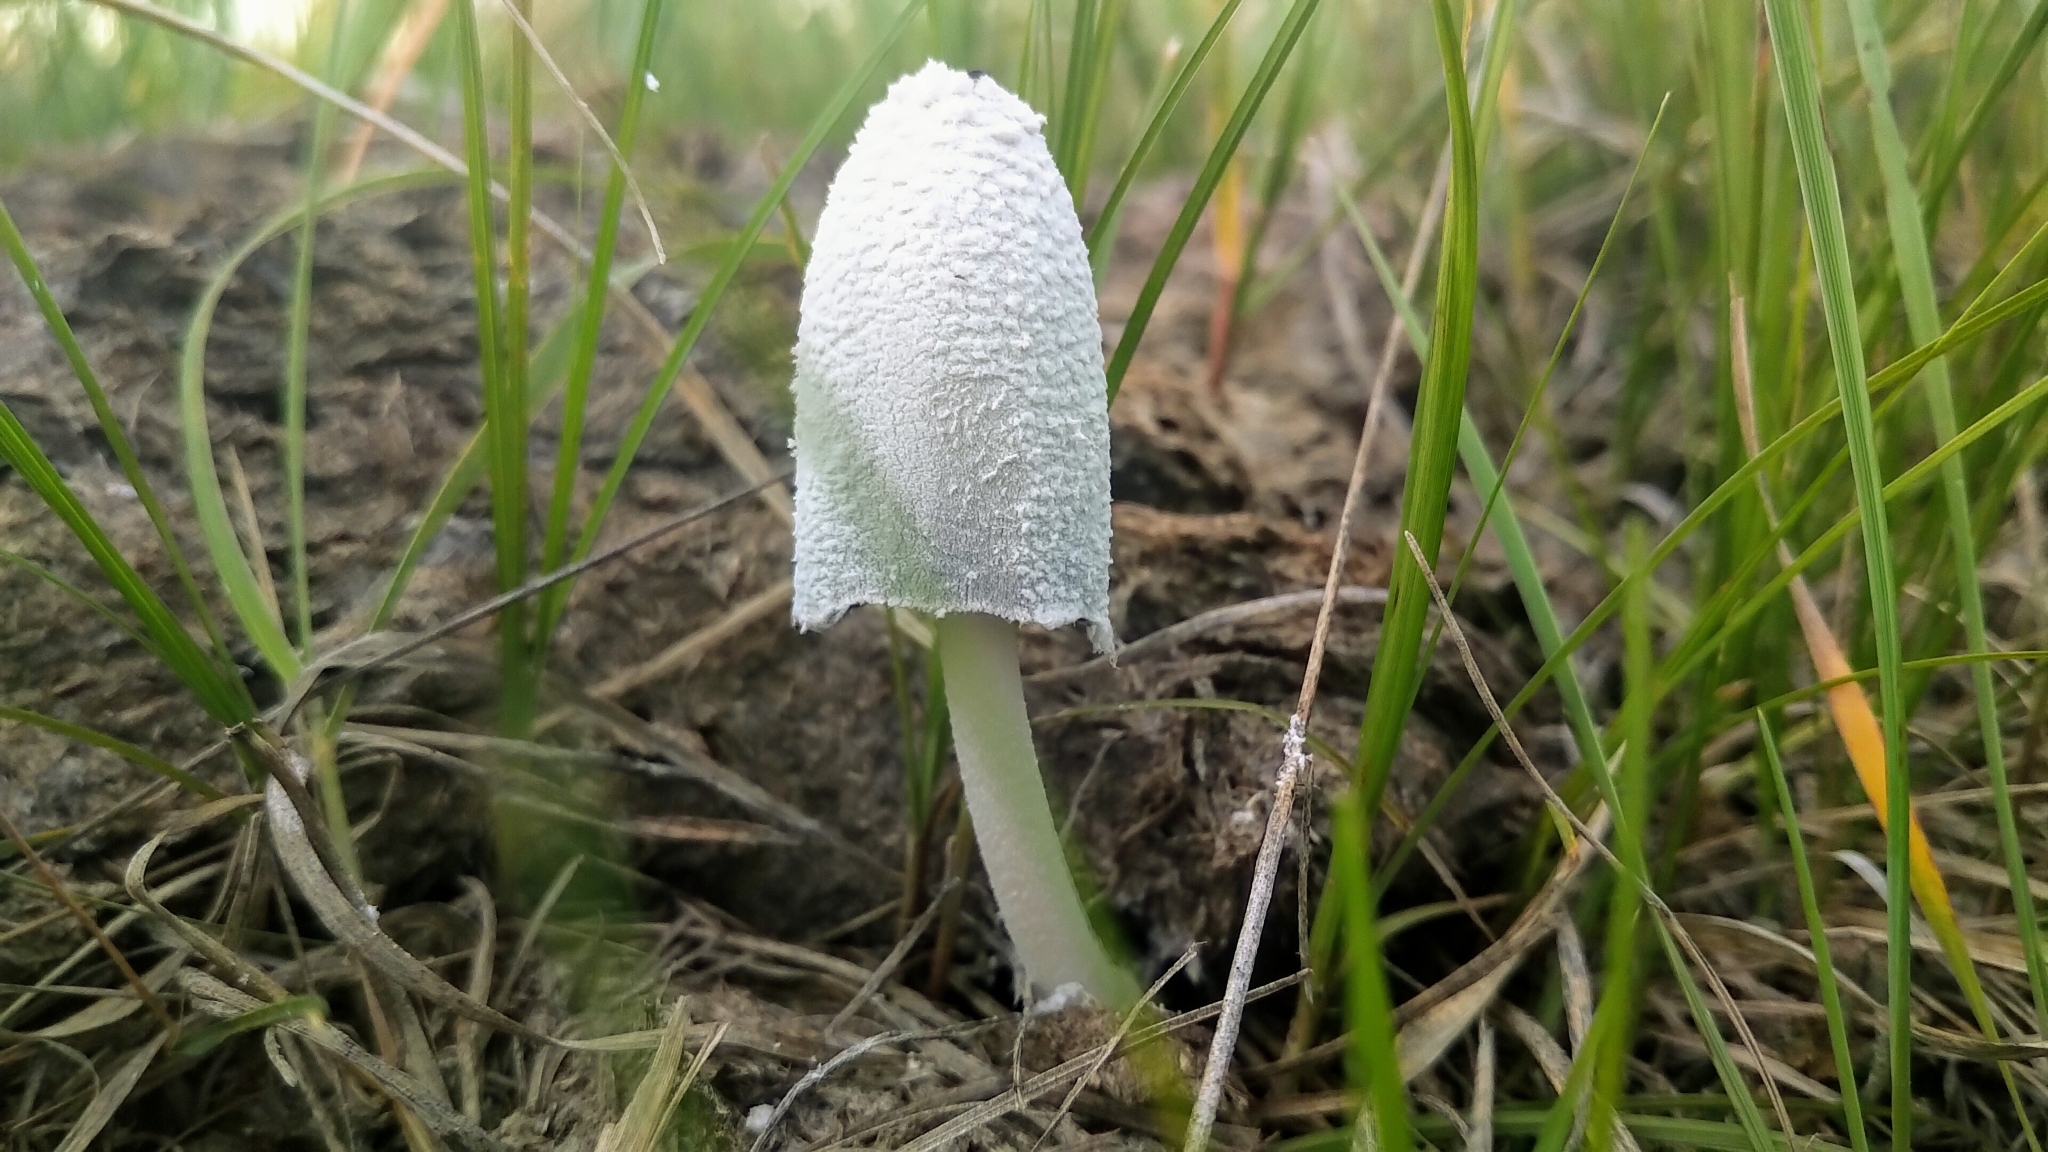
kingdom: Fungi
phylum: Basidiomycota
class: Agaricomycetes
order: Agaricales
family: Psathyrellaceae
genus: Coprinopsis
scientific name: Coprinopsis nivea
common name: Snowy inkcap
